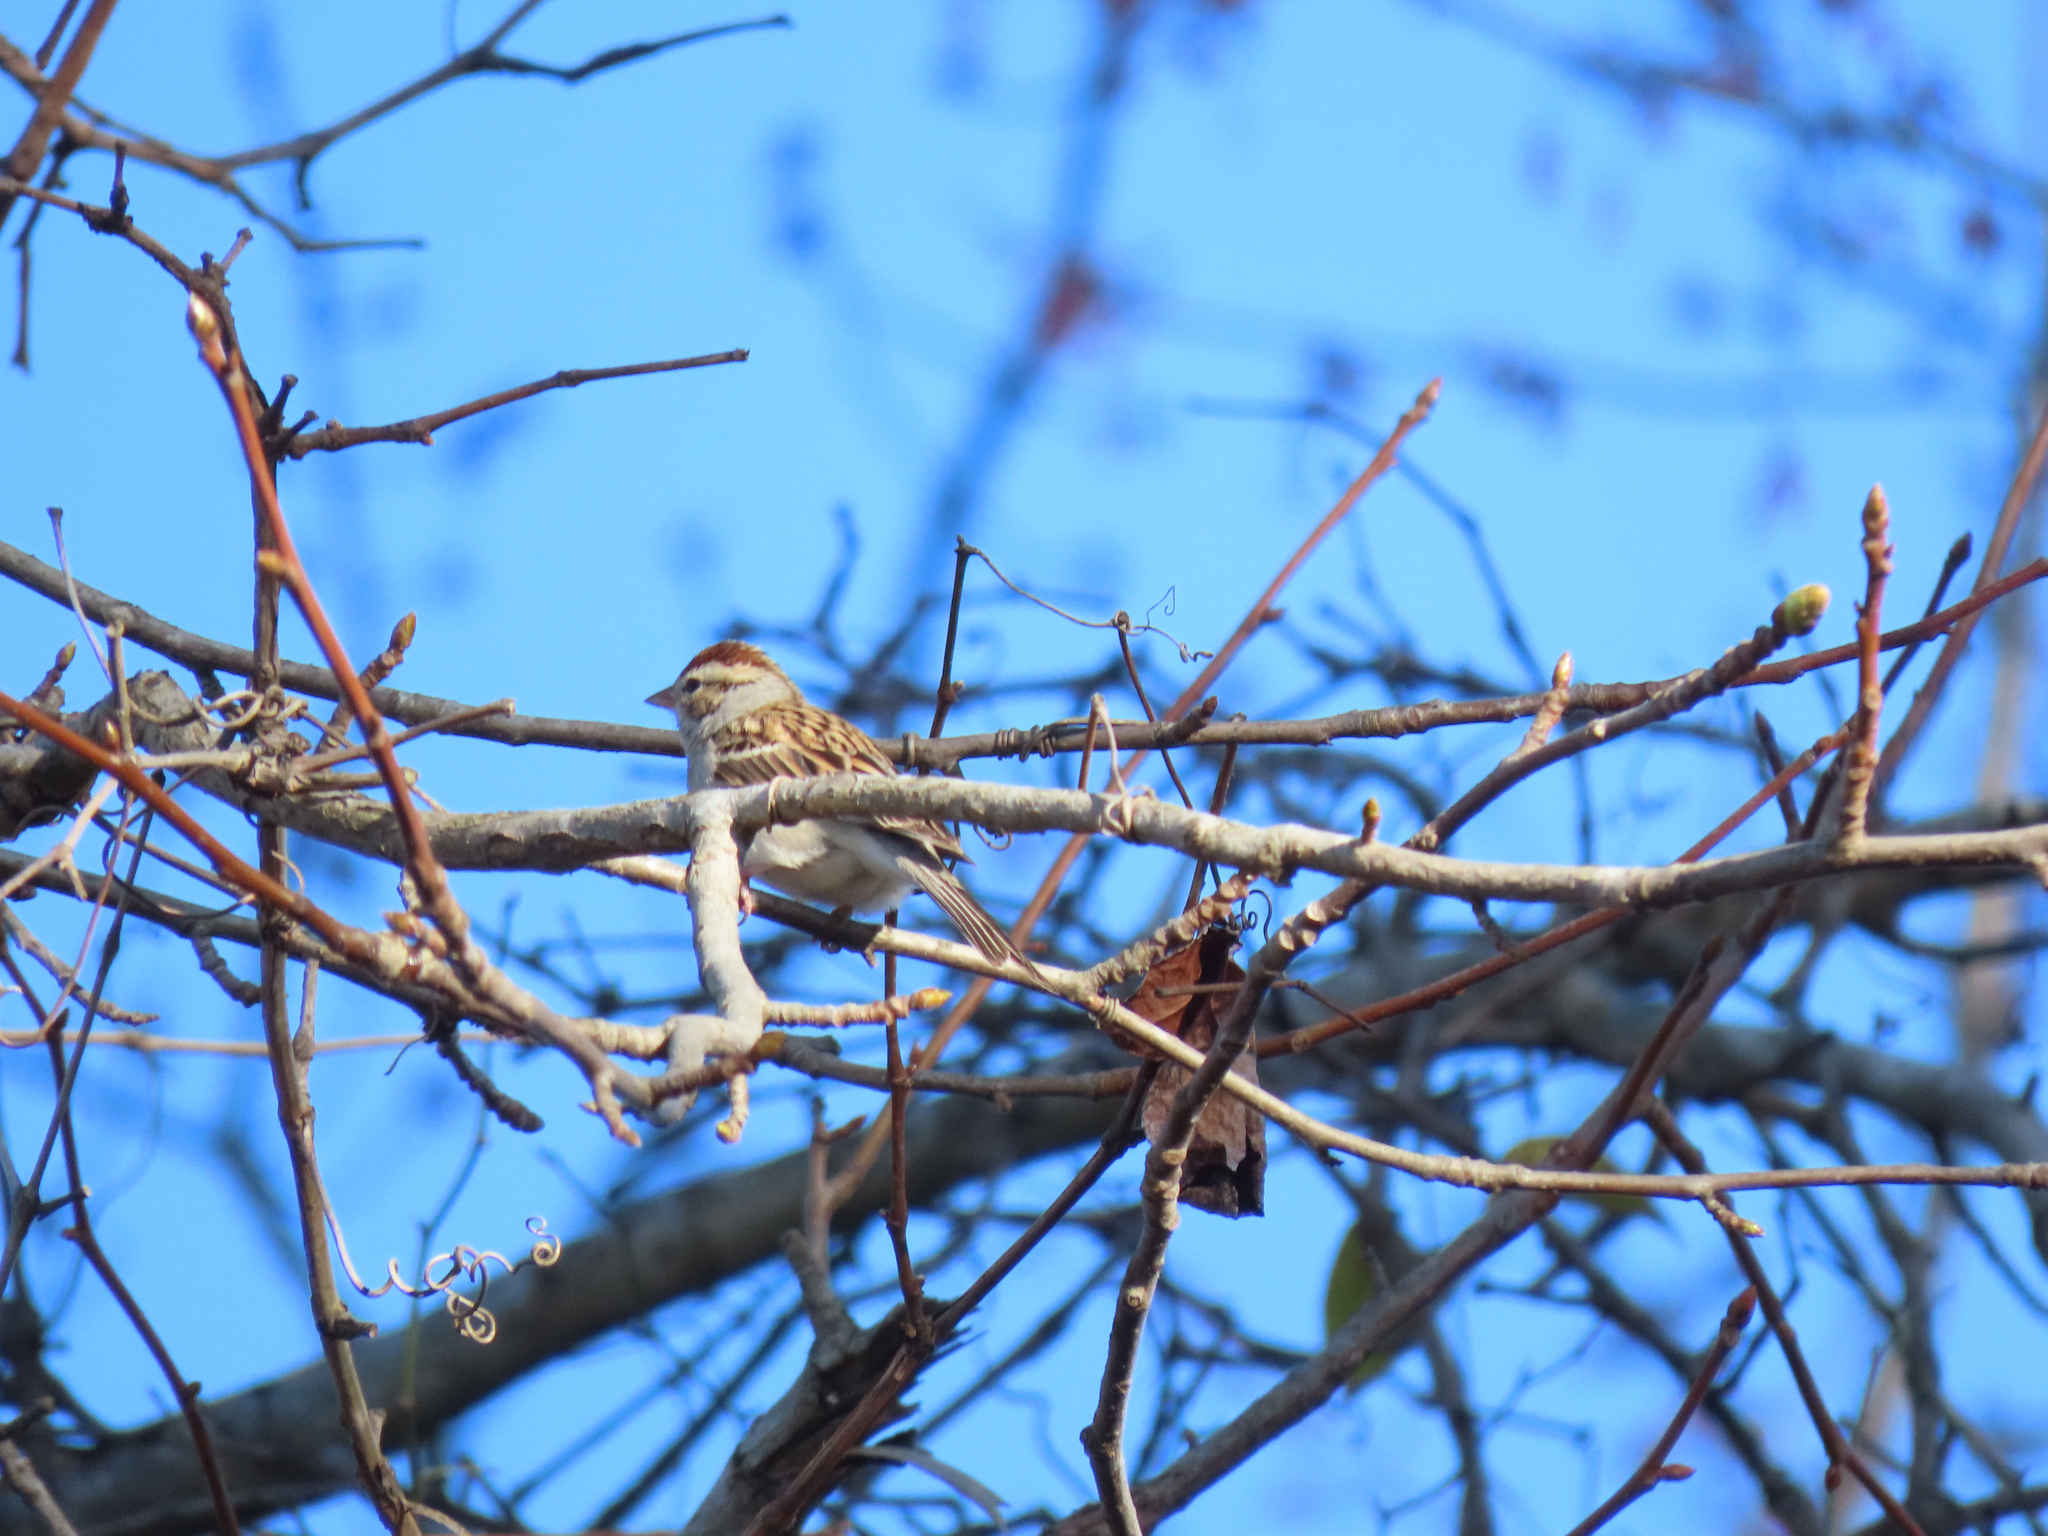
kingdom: Animalia
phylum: Chordata
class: Aves
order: Passeriformes
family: Passerellidae
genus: Spizella
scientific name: Spizella passerina
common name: Chipping sparrow
